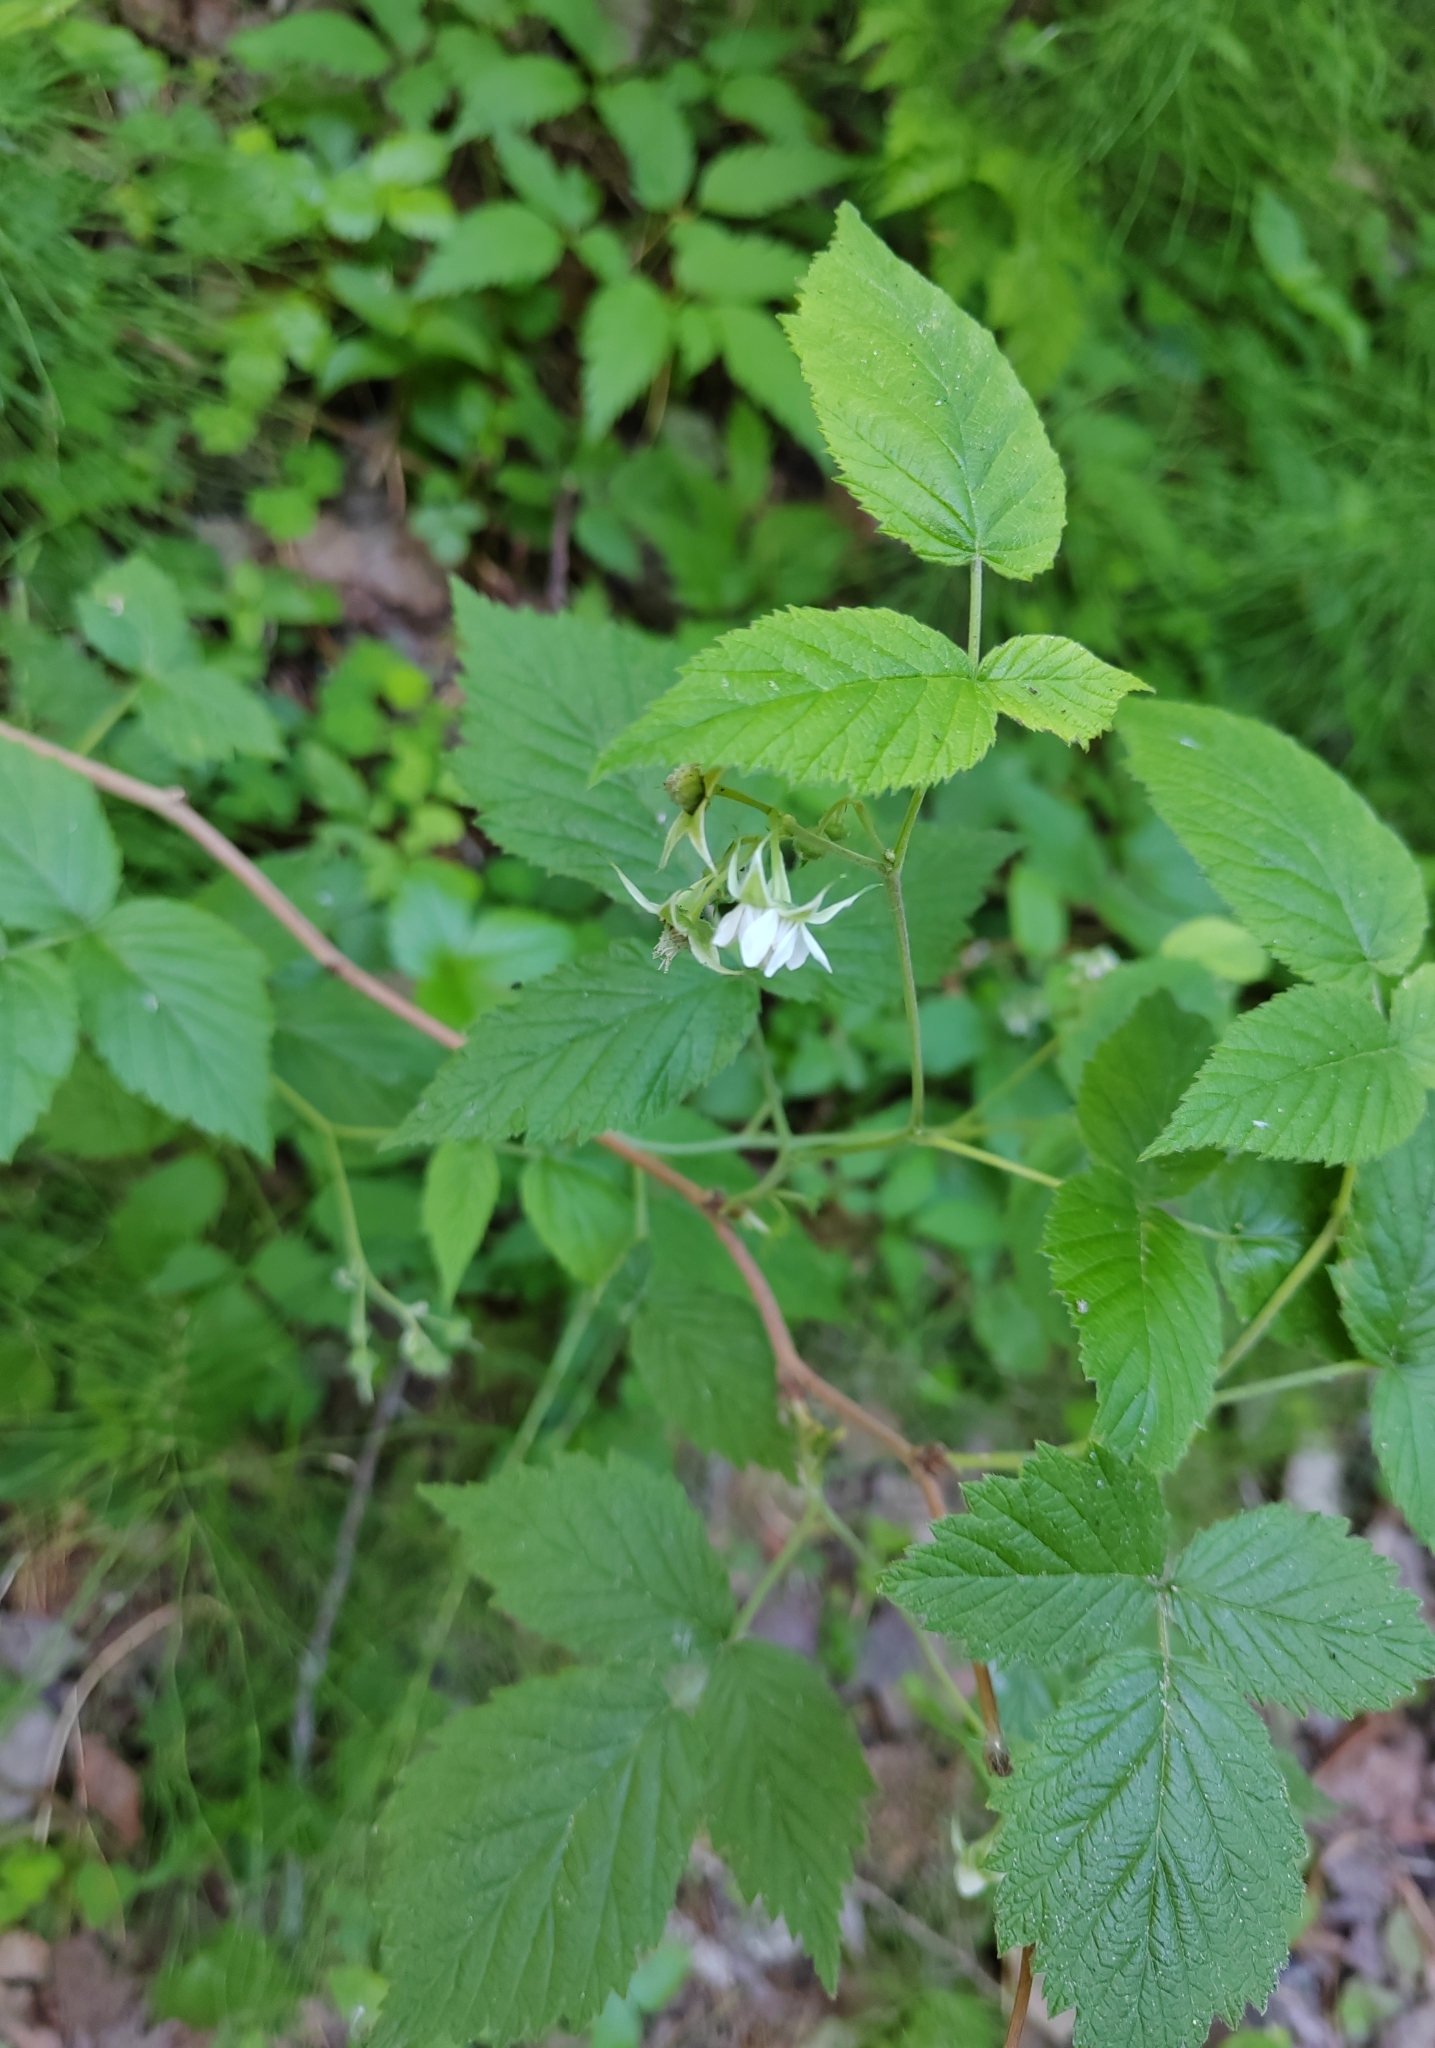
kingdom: Plantae
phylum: Tracheophyta
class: Magnoliopsida
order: Rosales
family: Rosaceae
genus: Rubus
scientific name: Rubus idaeus
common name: Raspberry
